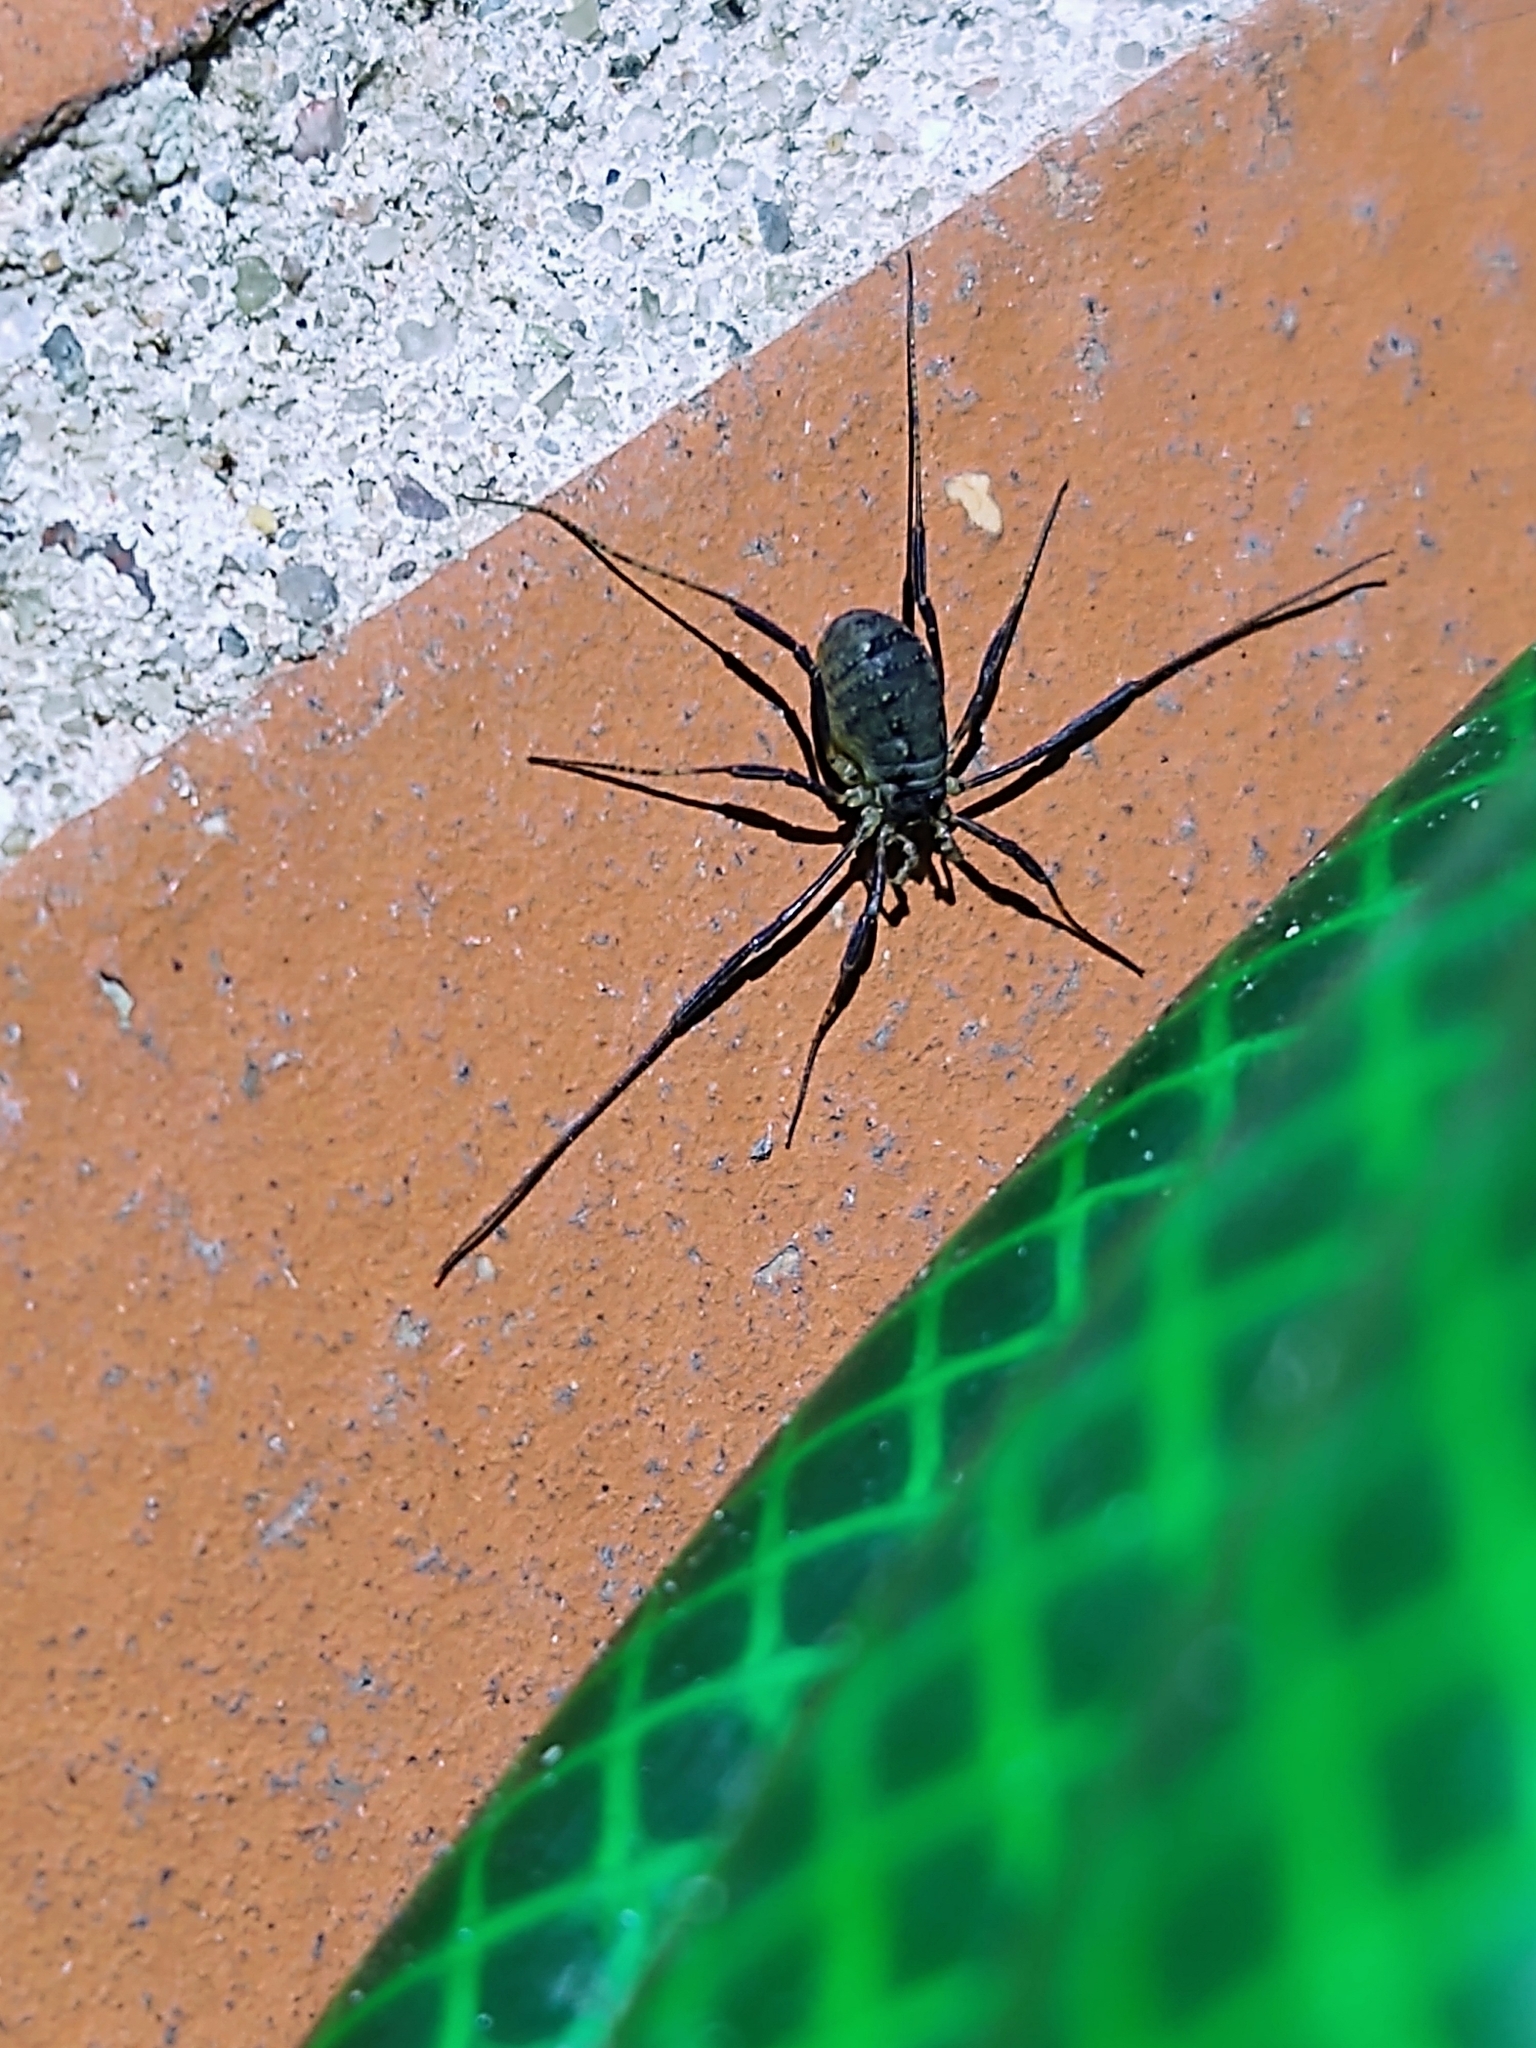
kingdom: Animalia
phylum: Arthropoda
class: Arachnida
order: Opiliones
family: Phalangiidae
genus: Oligolophus
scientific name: Oligolophus hansenii
